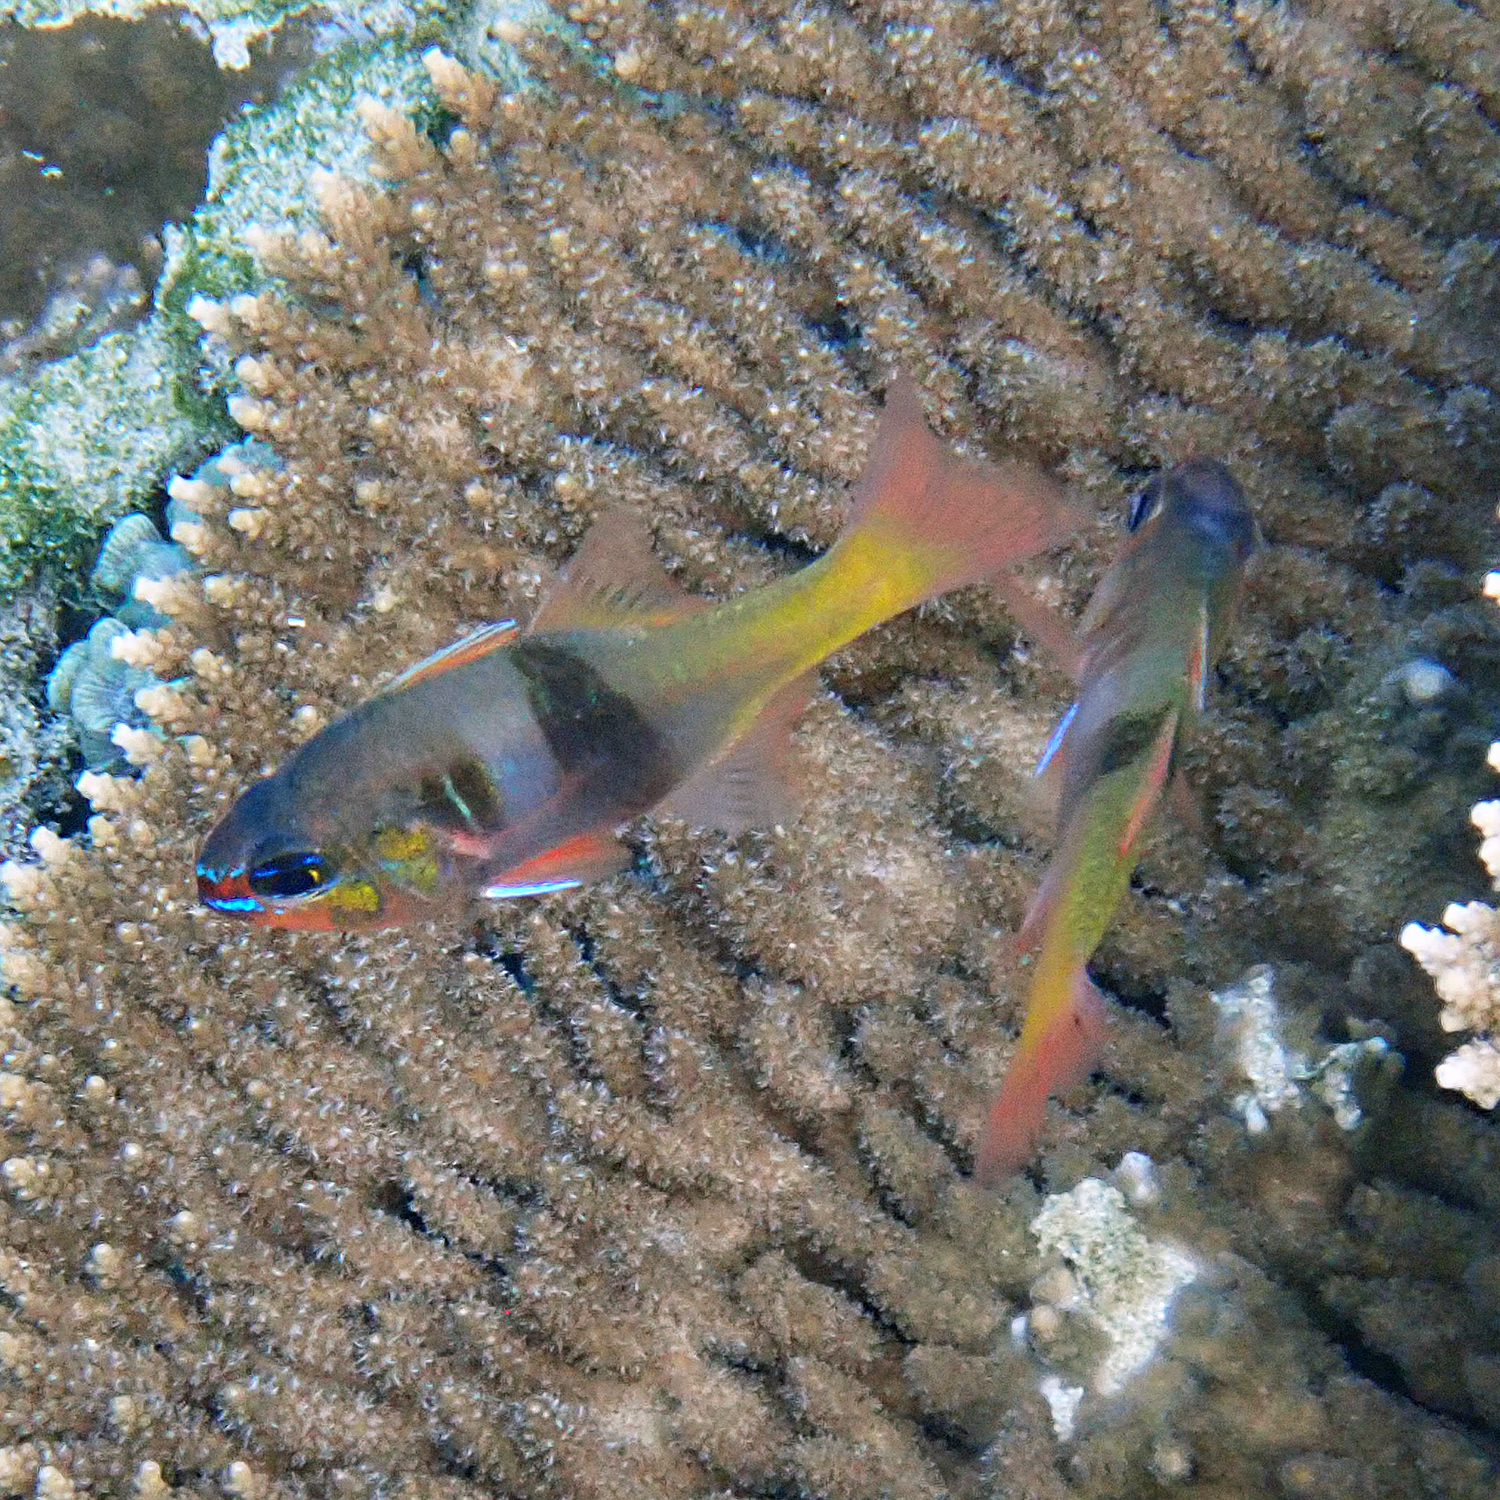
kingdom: Animalia
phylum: Chordata
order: Perciformes
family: Apogonidae
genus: Taeniamia
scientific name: Taeniamia leai
